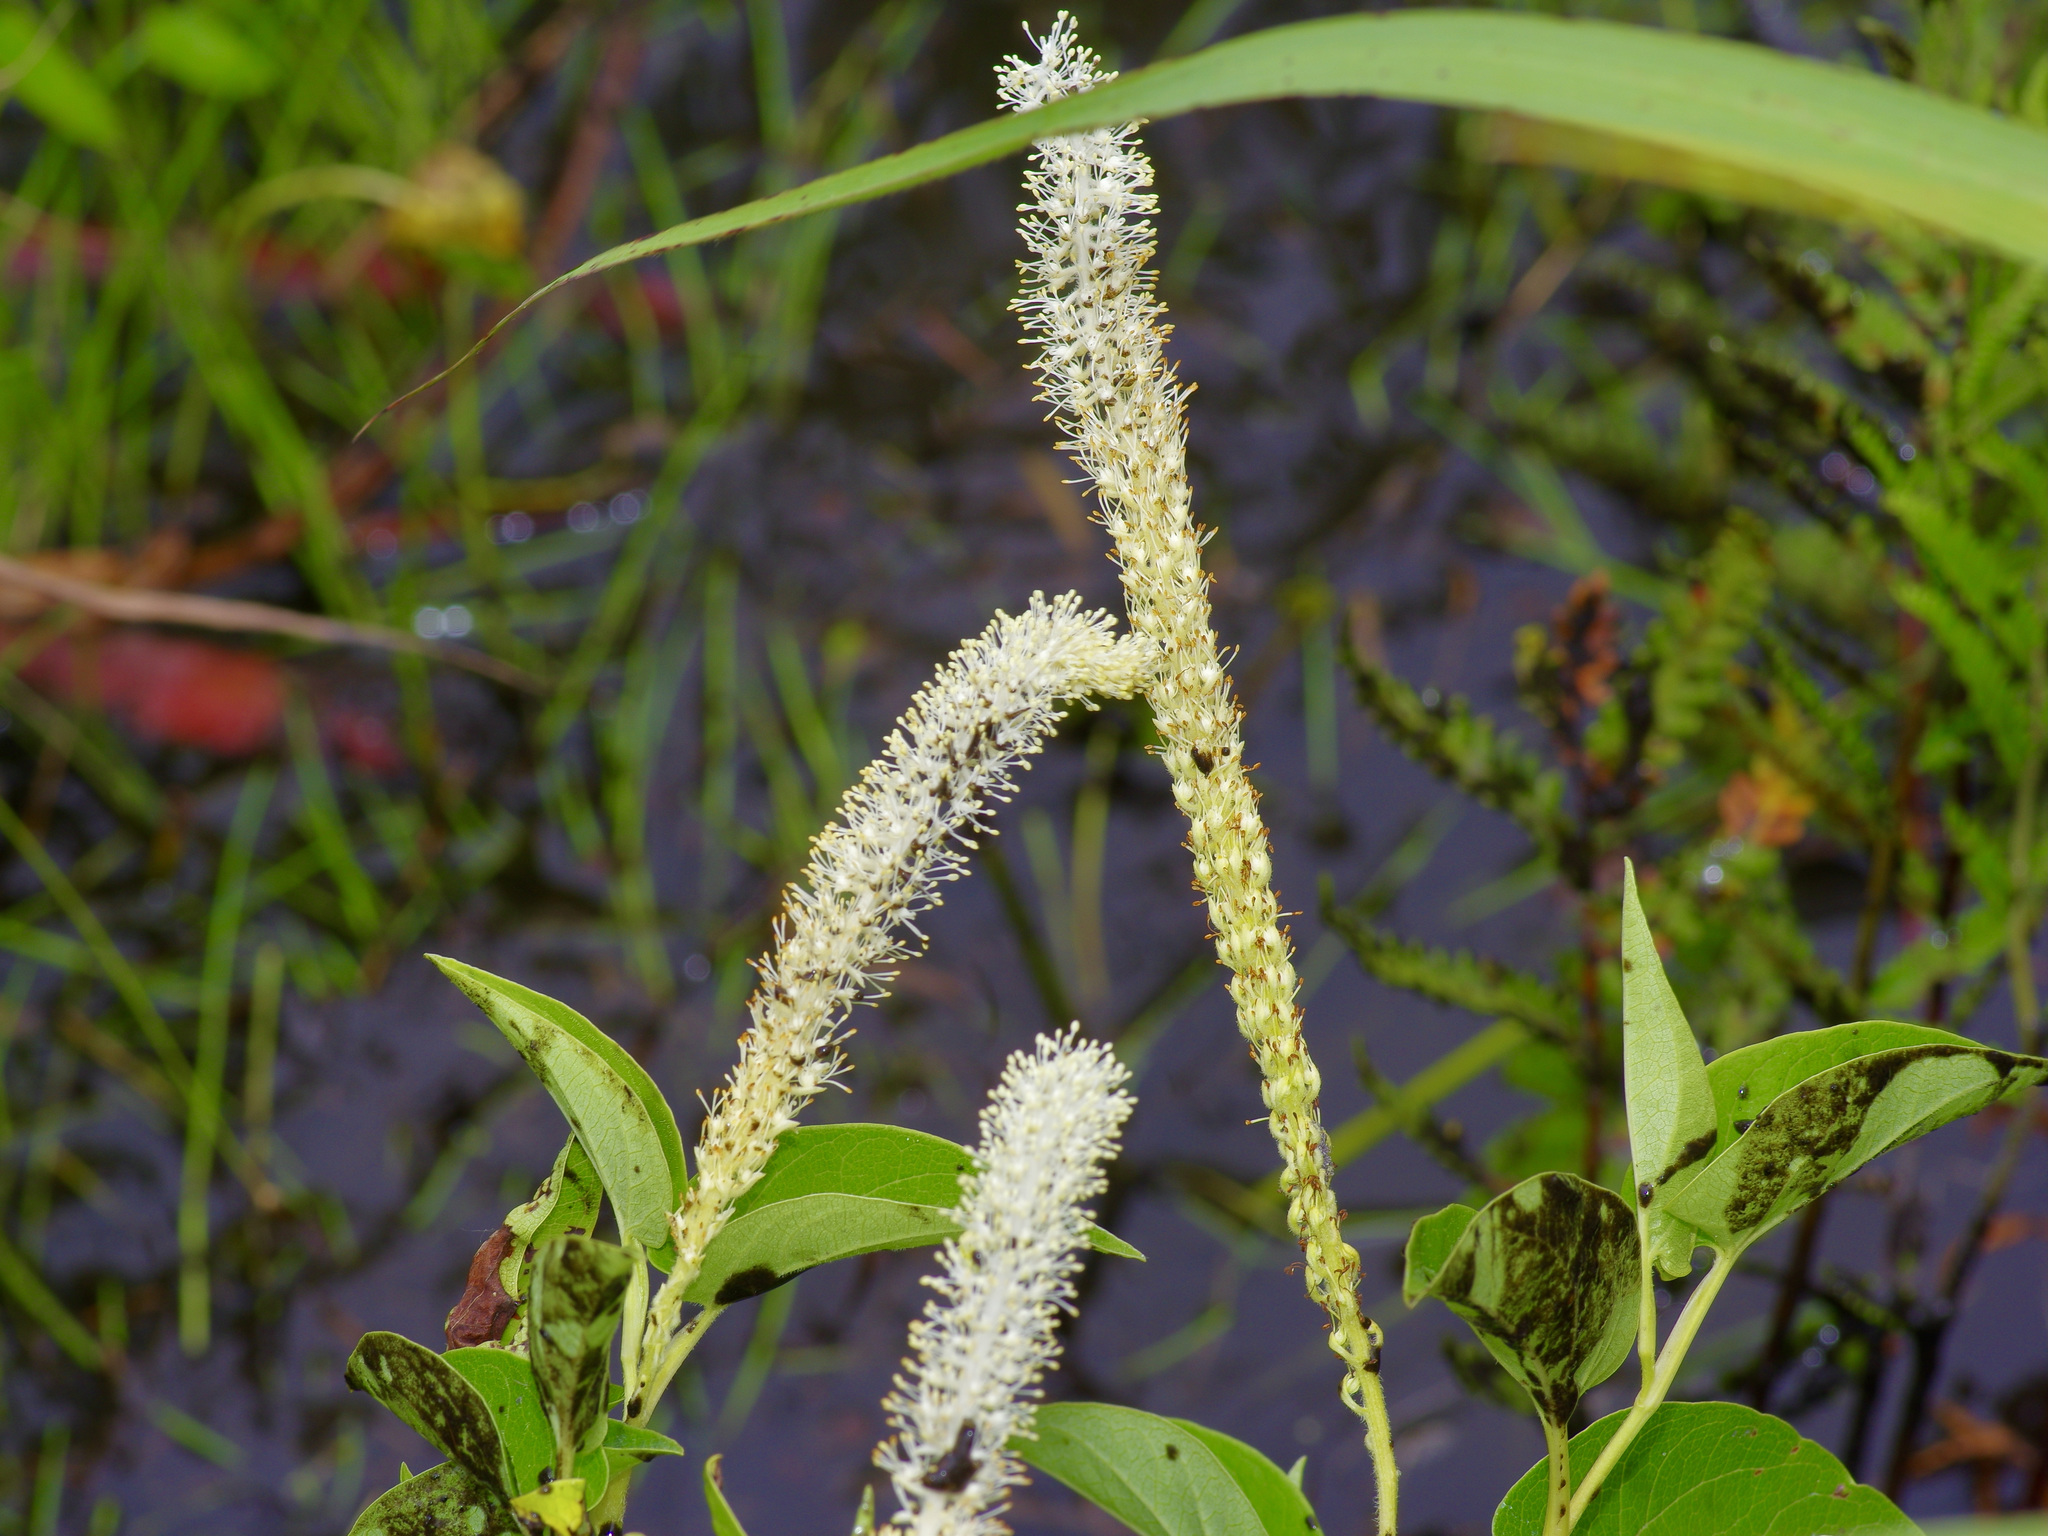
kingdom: Plantae
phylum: Tracheophyta
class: Magnoliopsida
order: Piperales
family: Saururaceae
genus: Saururus
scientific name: Saururus cernuus
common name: Lizard's-tail
